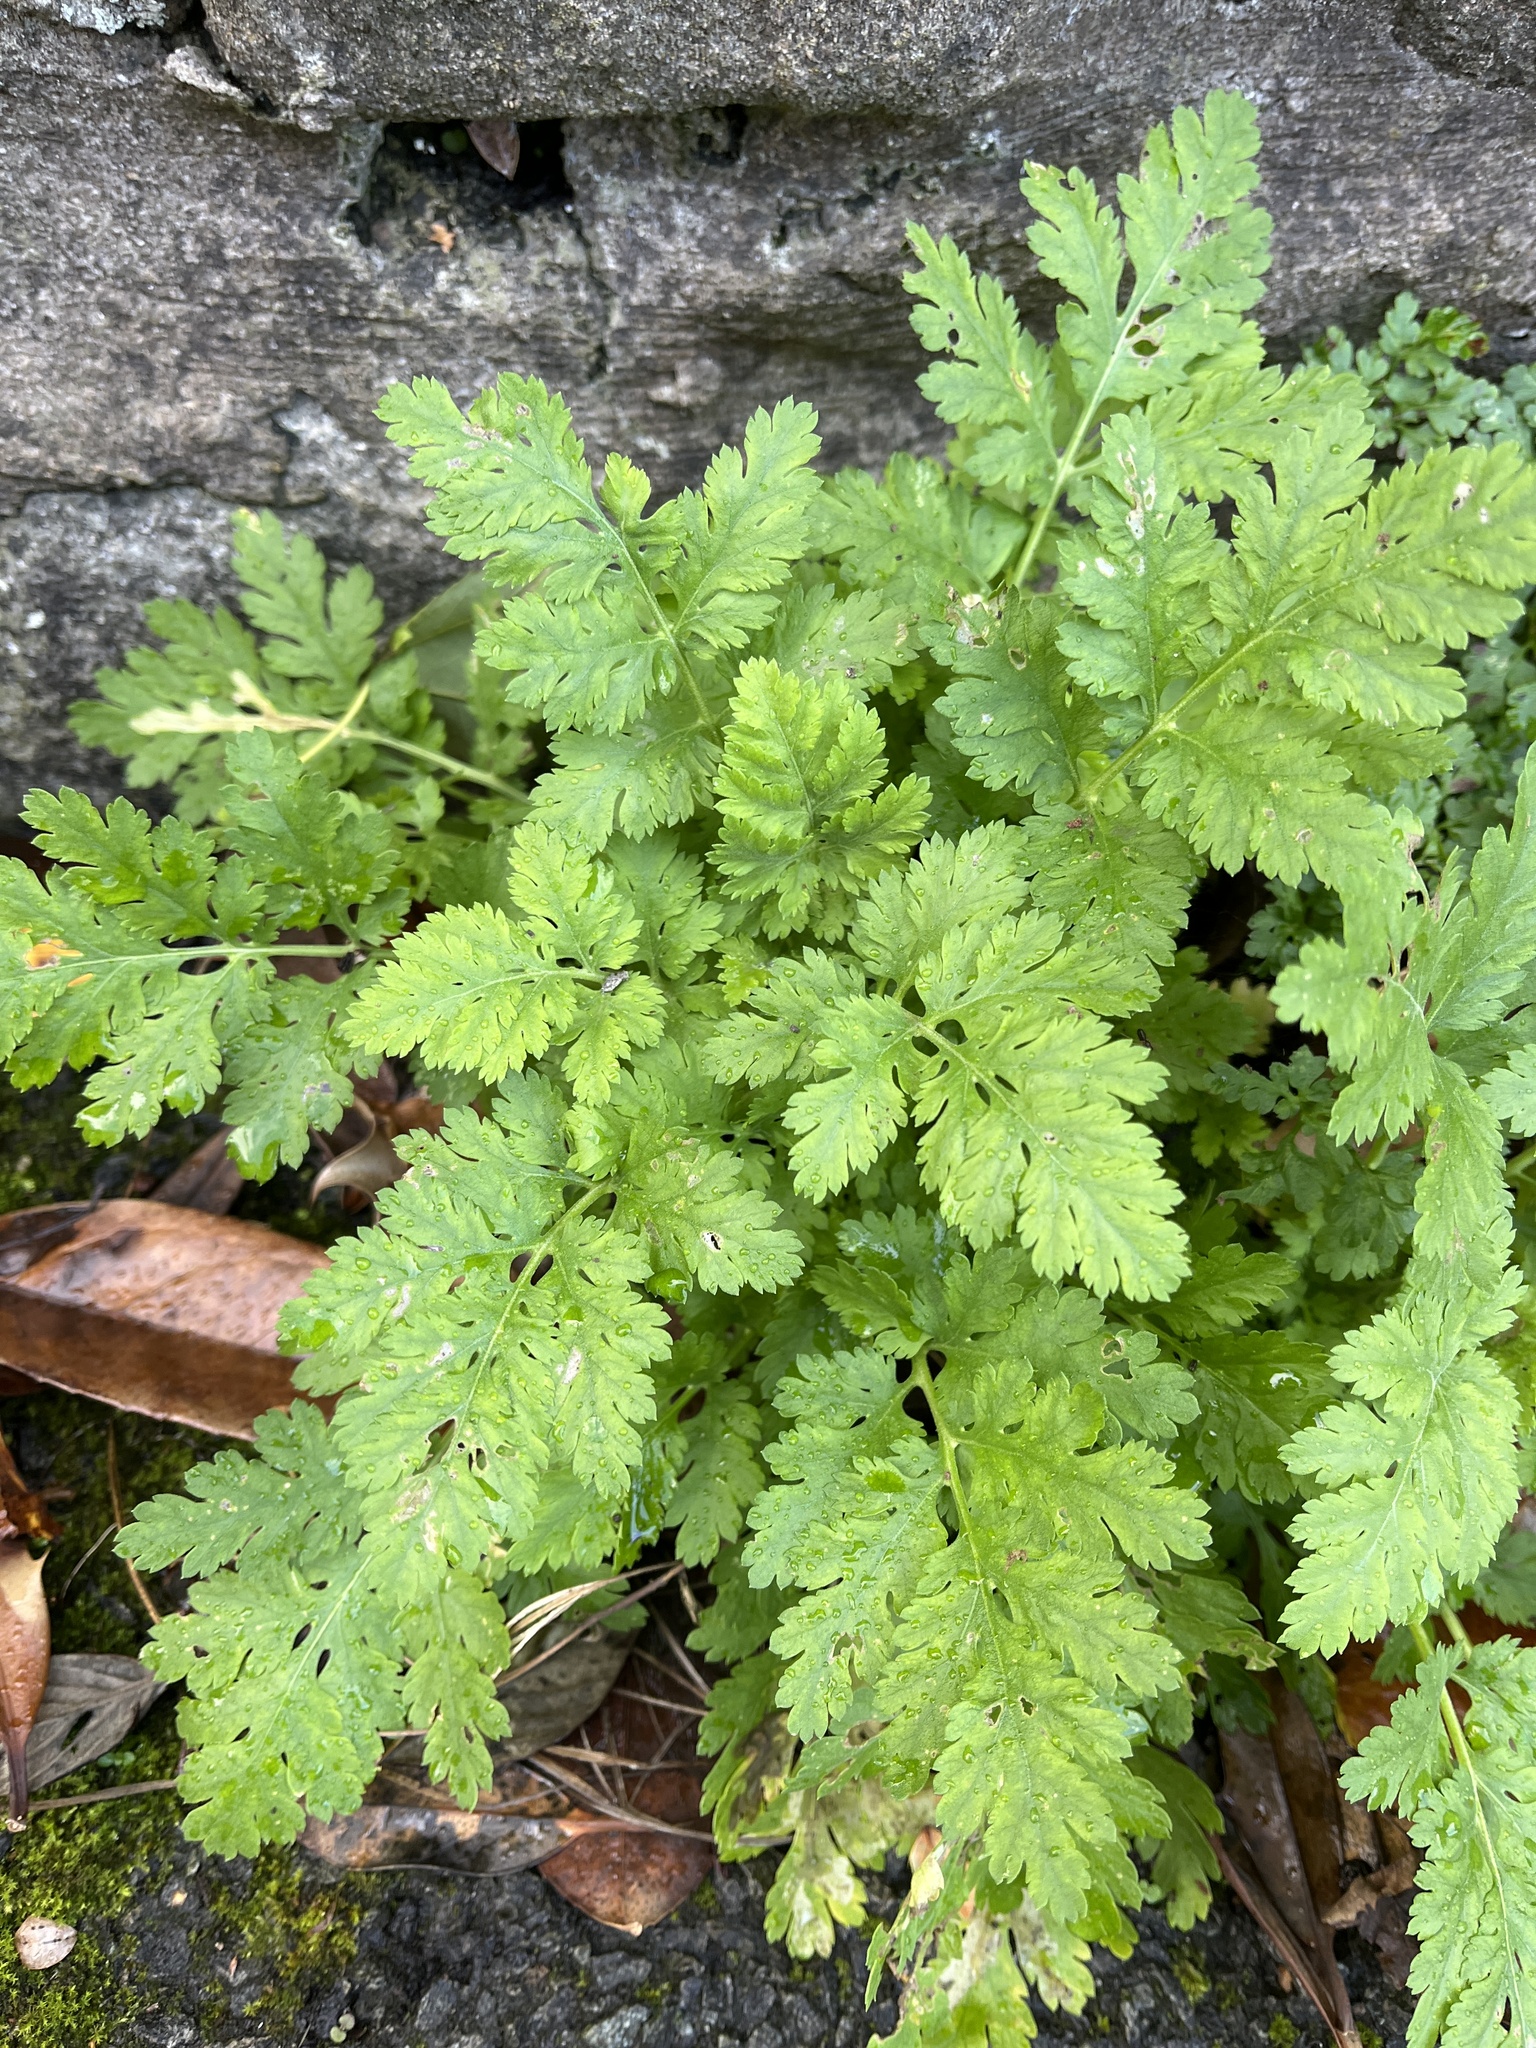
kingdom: Plantae
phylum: Tracheophyta
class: Magnoliopsida
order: Asterales
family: Asteraceae
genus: Tanacetum
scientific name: Tanacetum parthenium
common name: Feverfew
